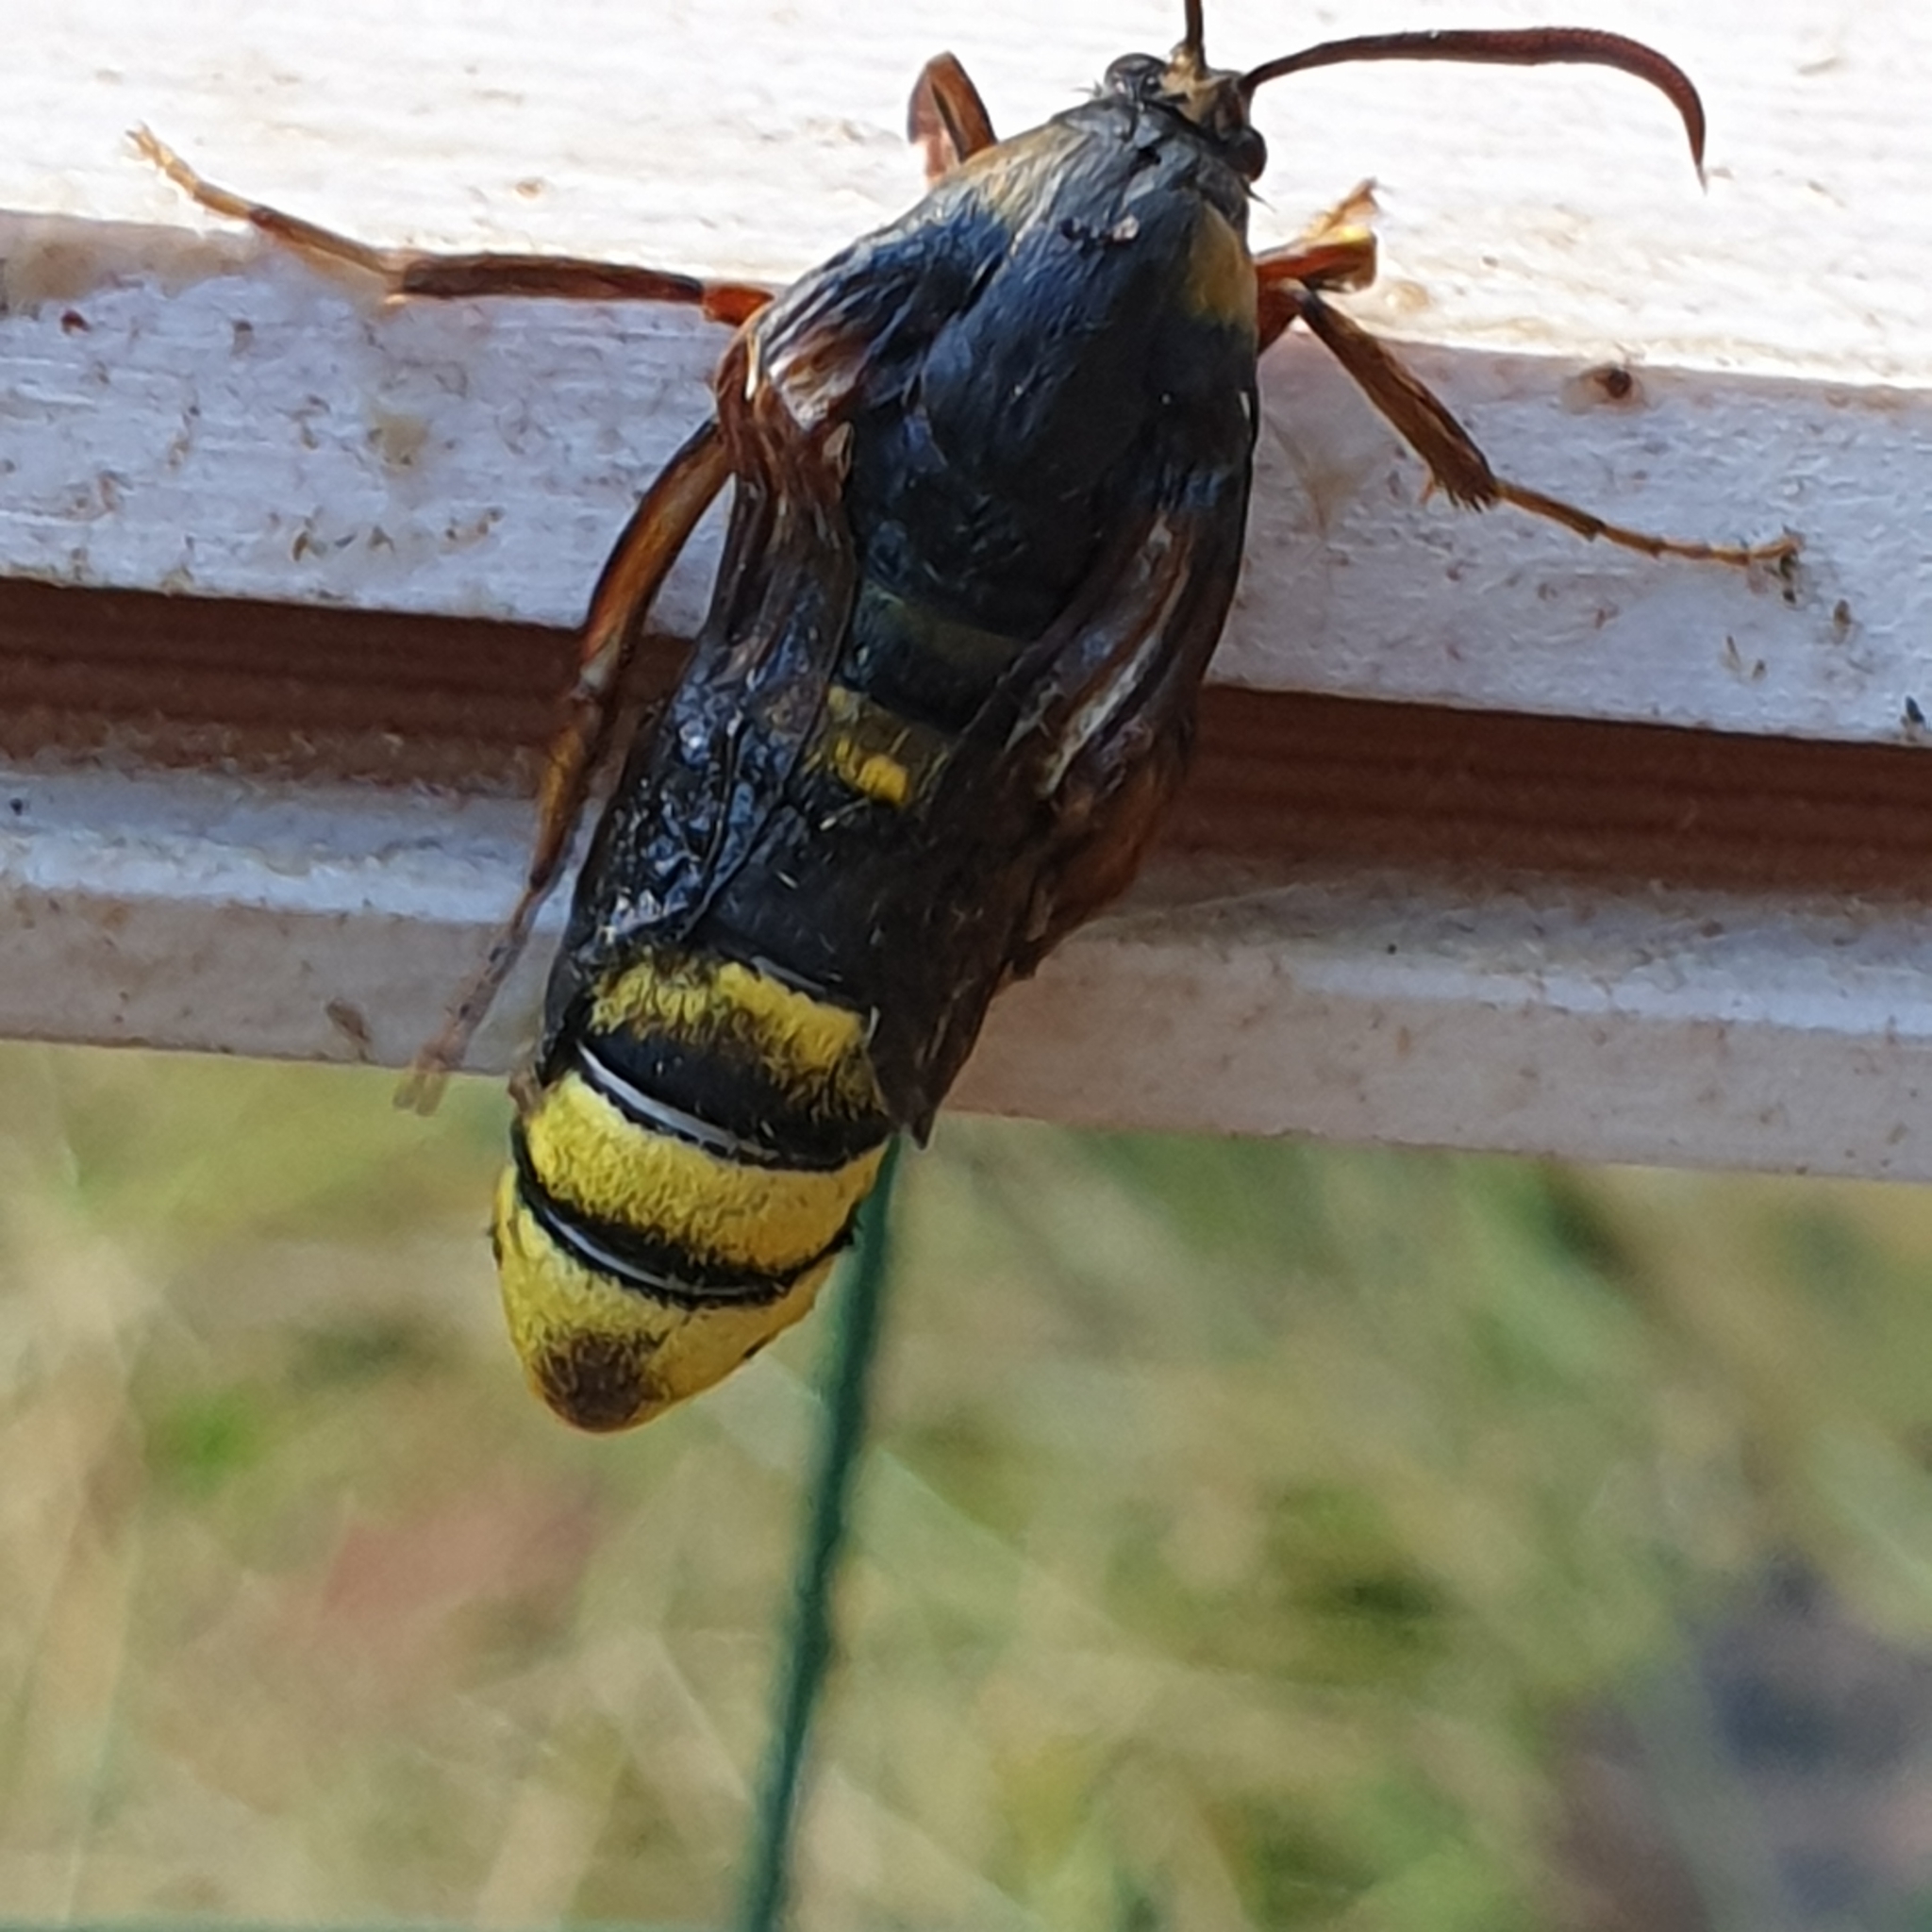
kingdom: Animalia
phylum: Arthropoda
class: Insecta
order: Lepidoptera
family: Sesiidae
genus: Sesia
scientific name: Sesia apiformis
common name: Hornet moth
